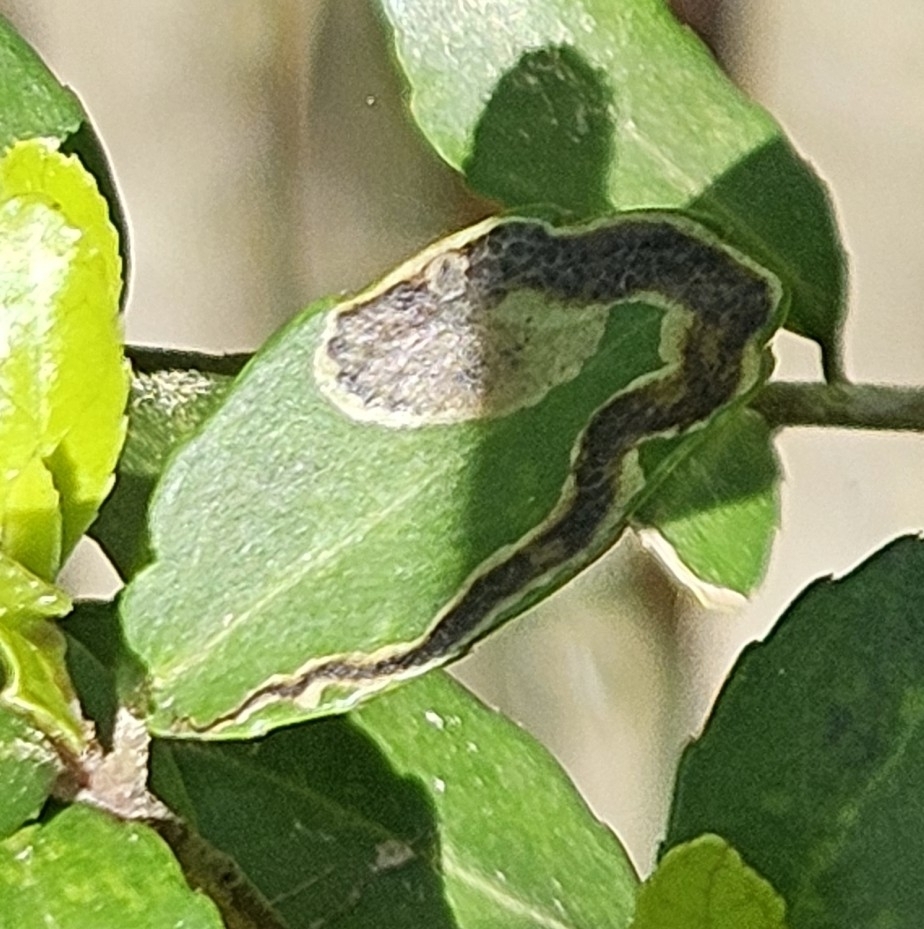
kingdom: Animalia
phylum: Arthropoda
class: Insecta
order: Diptera
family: Agromyzidae
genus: Phytomyza
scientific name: Phytomyza vomitoriae
